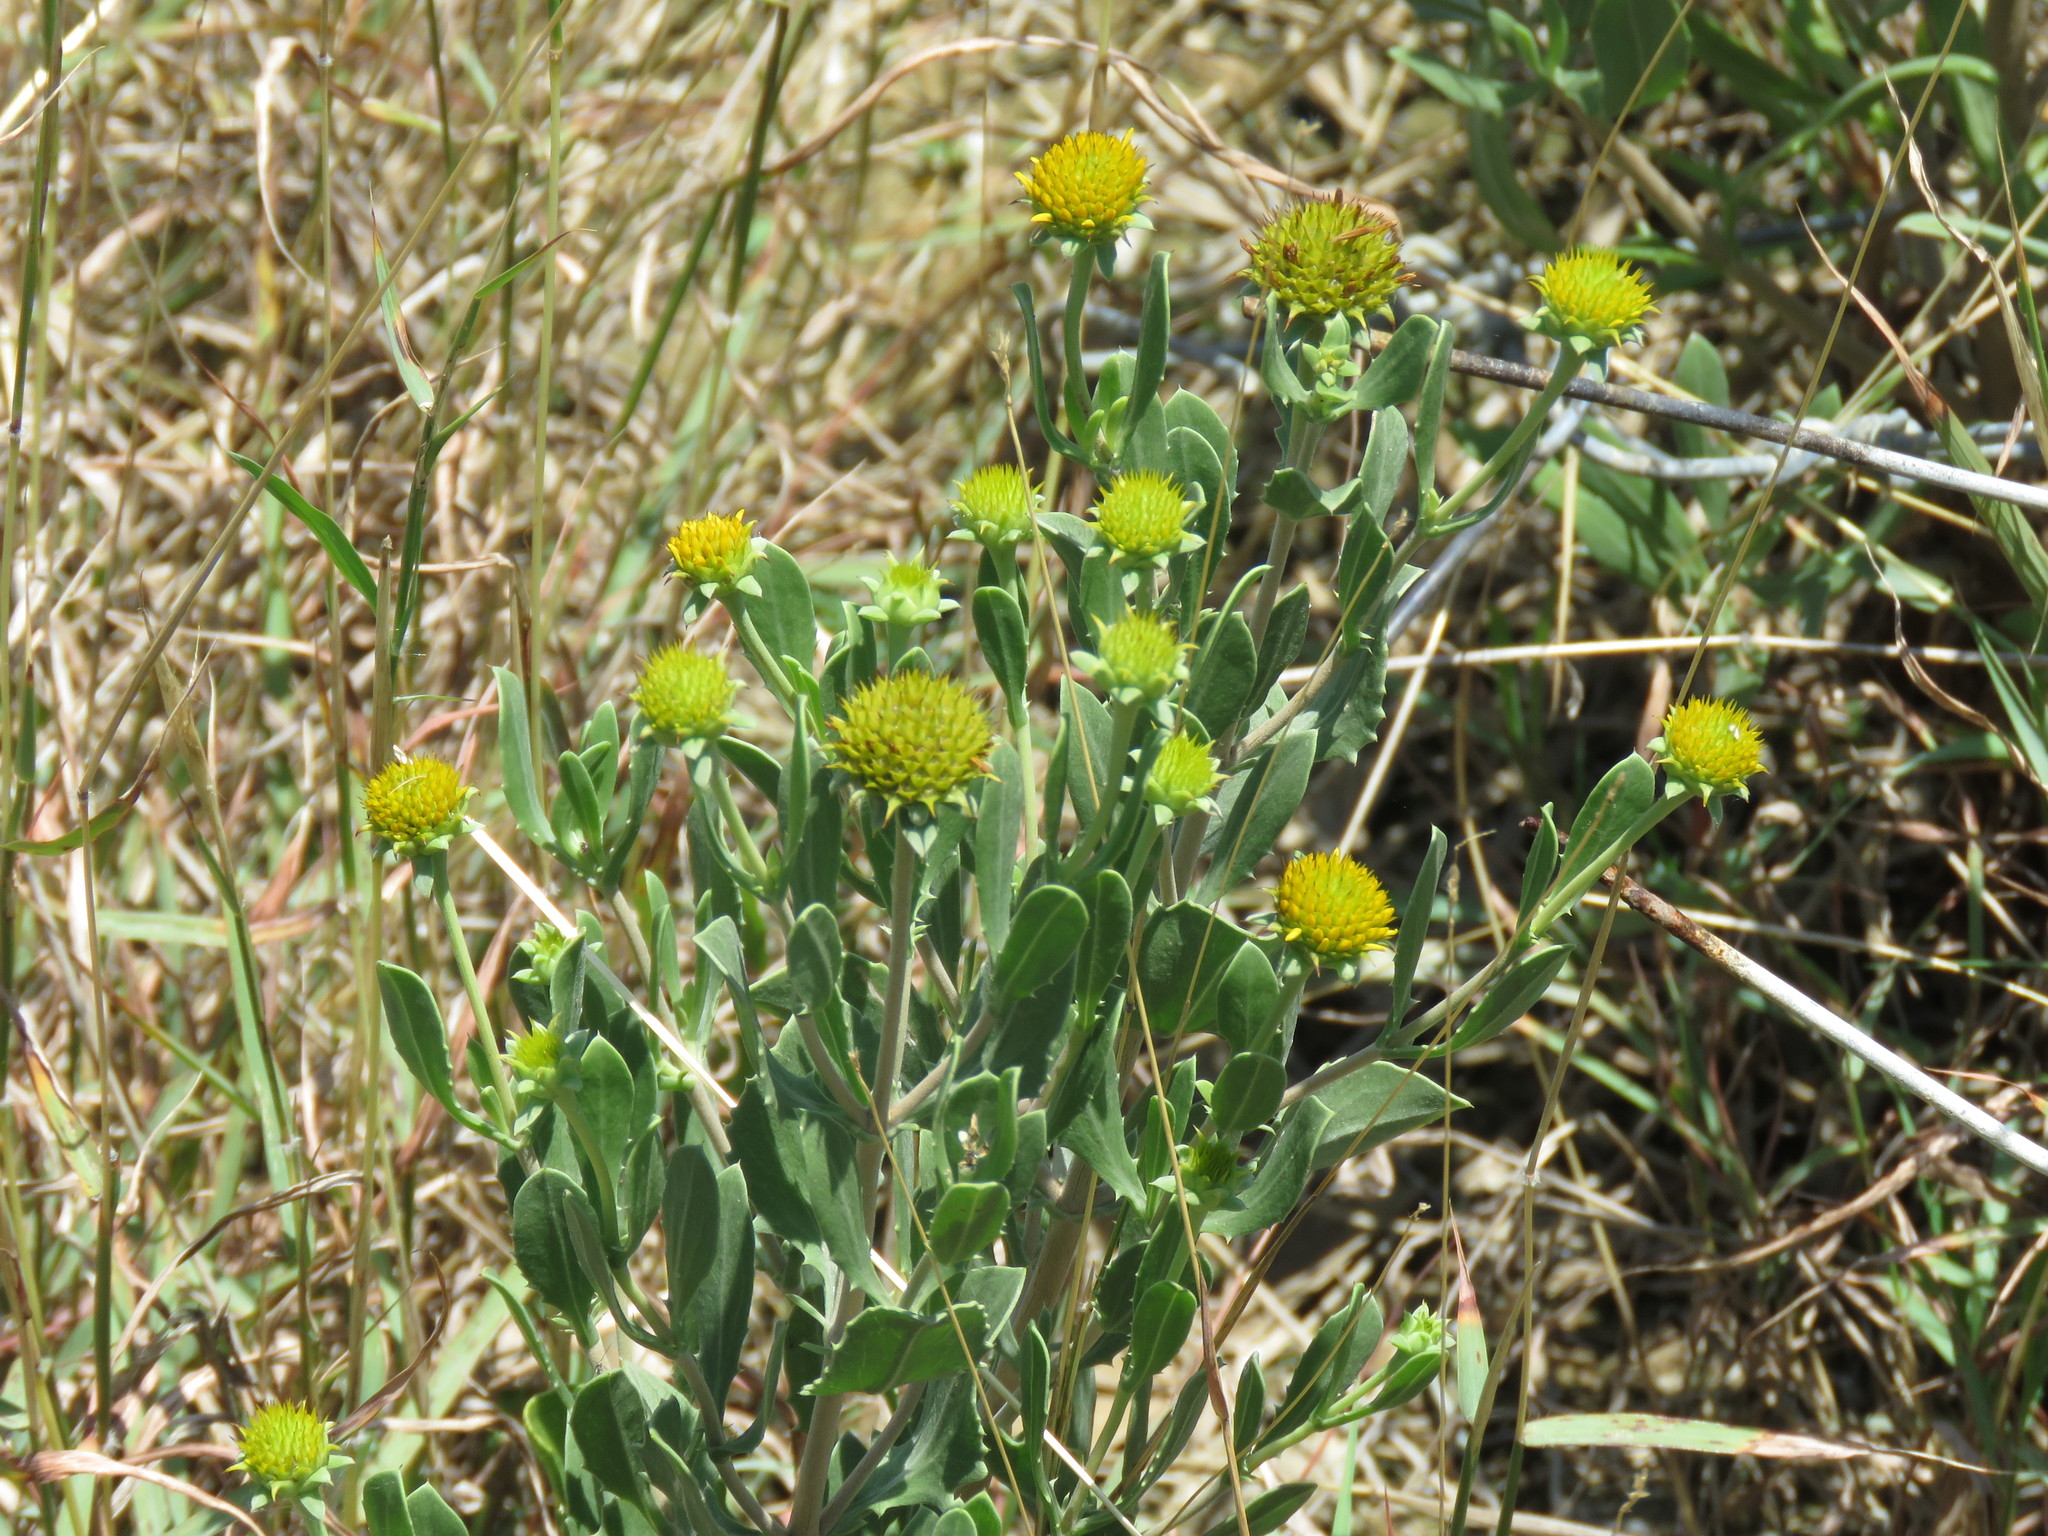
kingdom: Plantae
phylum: Tracheophyta
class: Magnoliopsida
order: Asterales
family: Asteraceae
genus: Borrichia
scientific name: Borrichia frutescens
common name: Sea oxeye
